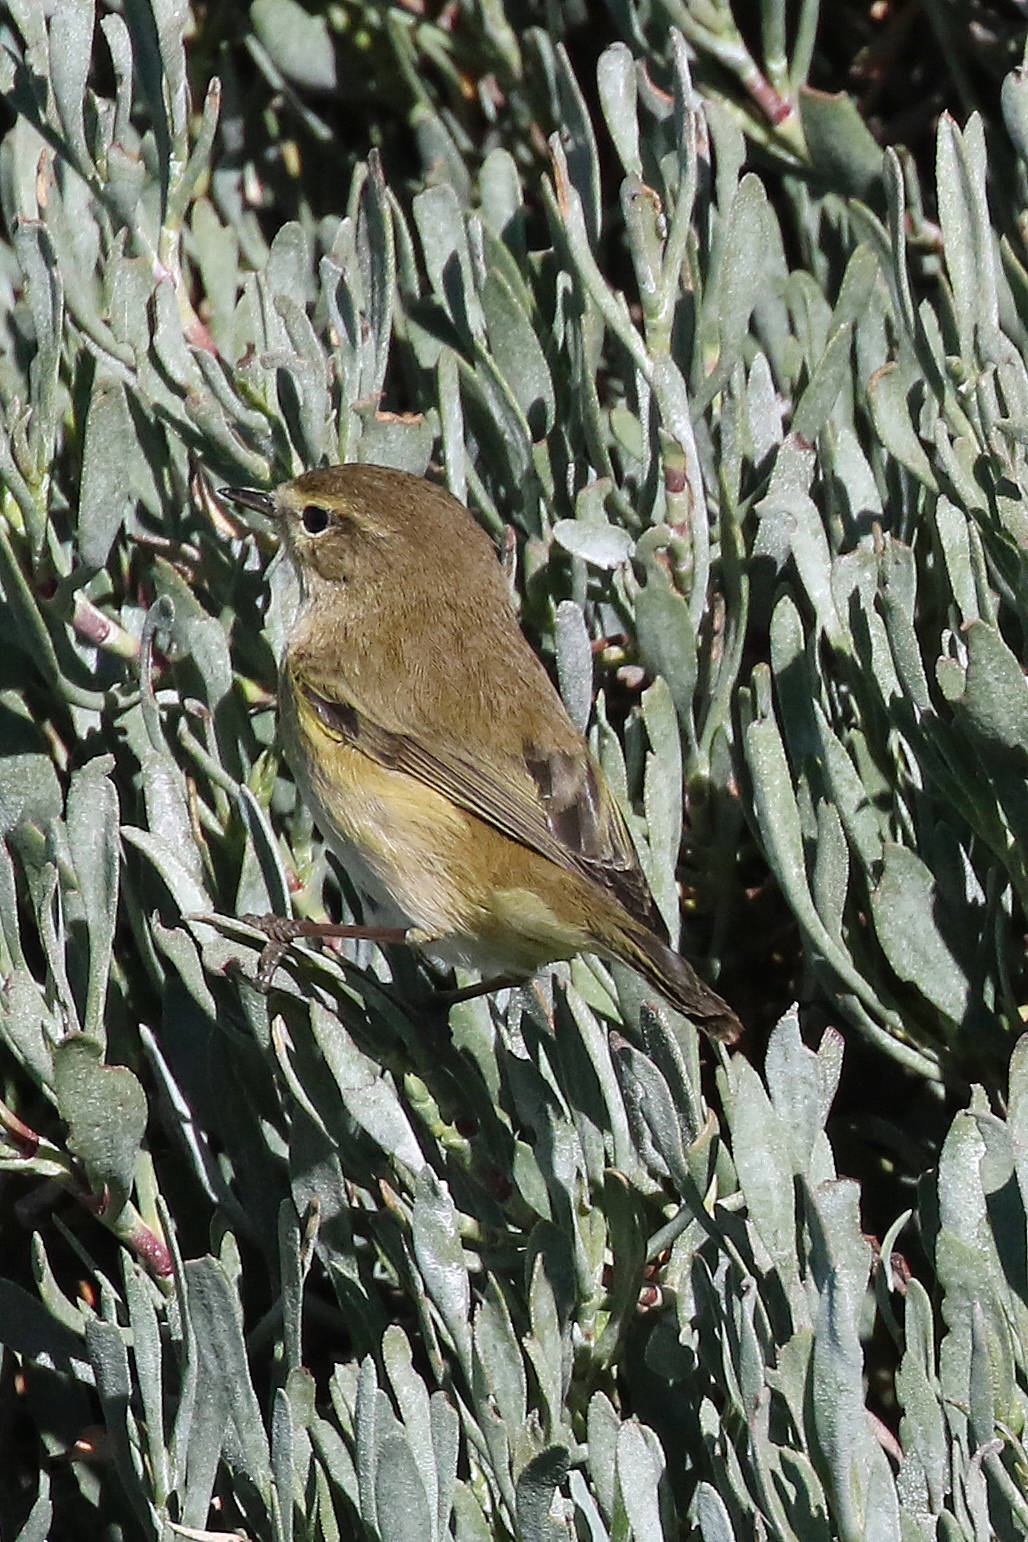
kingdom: Animalia
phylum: Chordata
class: Aves
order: Passeriformes
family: Phylloscopidae
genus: Phylloscopus
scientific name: Phylloscopus collybita
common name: Common chiffchaff
